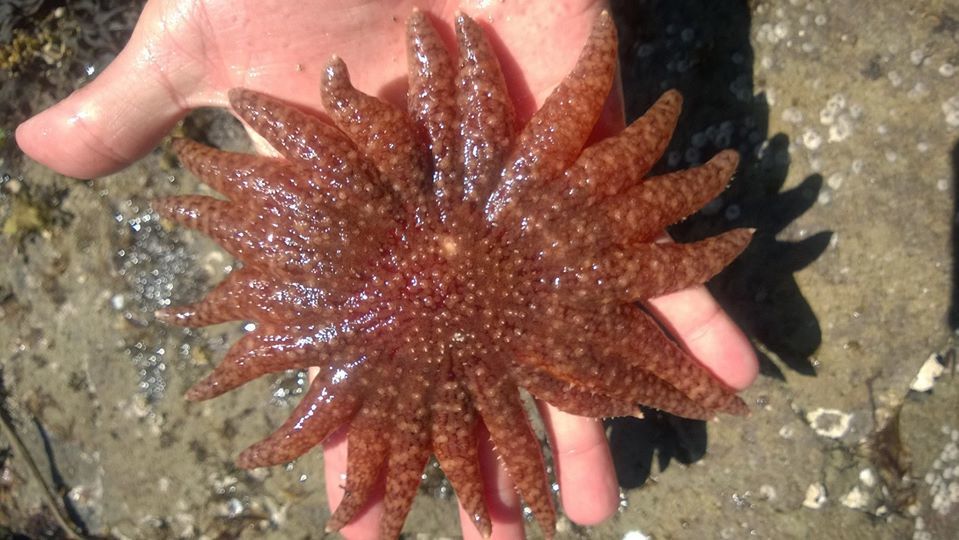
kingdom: Animalia
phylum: Echinodermata
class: Asteroidea
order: Forcipulatida
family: Asteriidae
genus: Pycnopodia
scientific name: Pycnopodia helianthoides
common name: Rag mop
